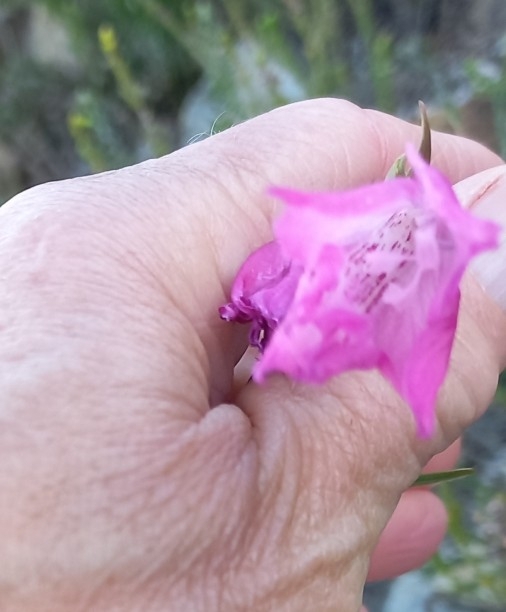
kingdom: Plantae
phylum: Tracheophyta
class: Liliopsida
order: Asparagales
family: Iridaceae
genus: Gladiolus
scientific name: Gladiolus hirsutus
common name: Small pink afrikaner
